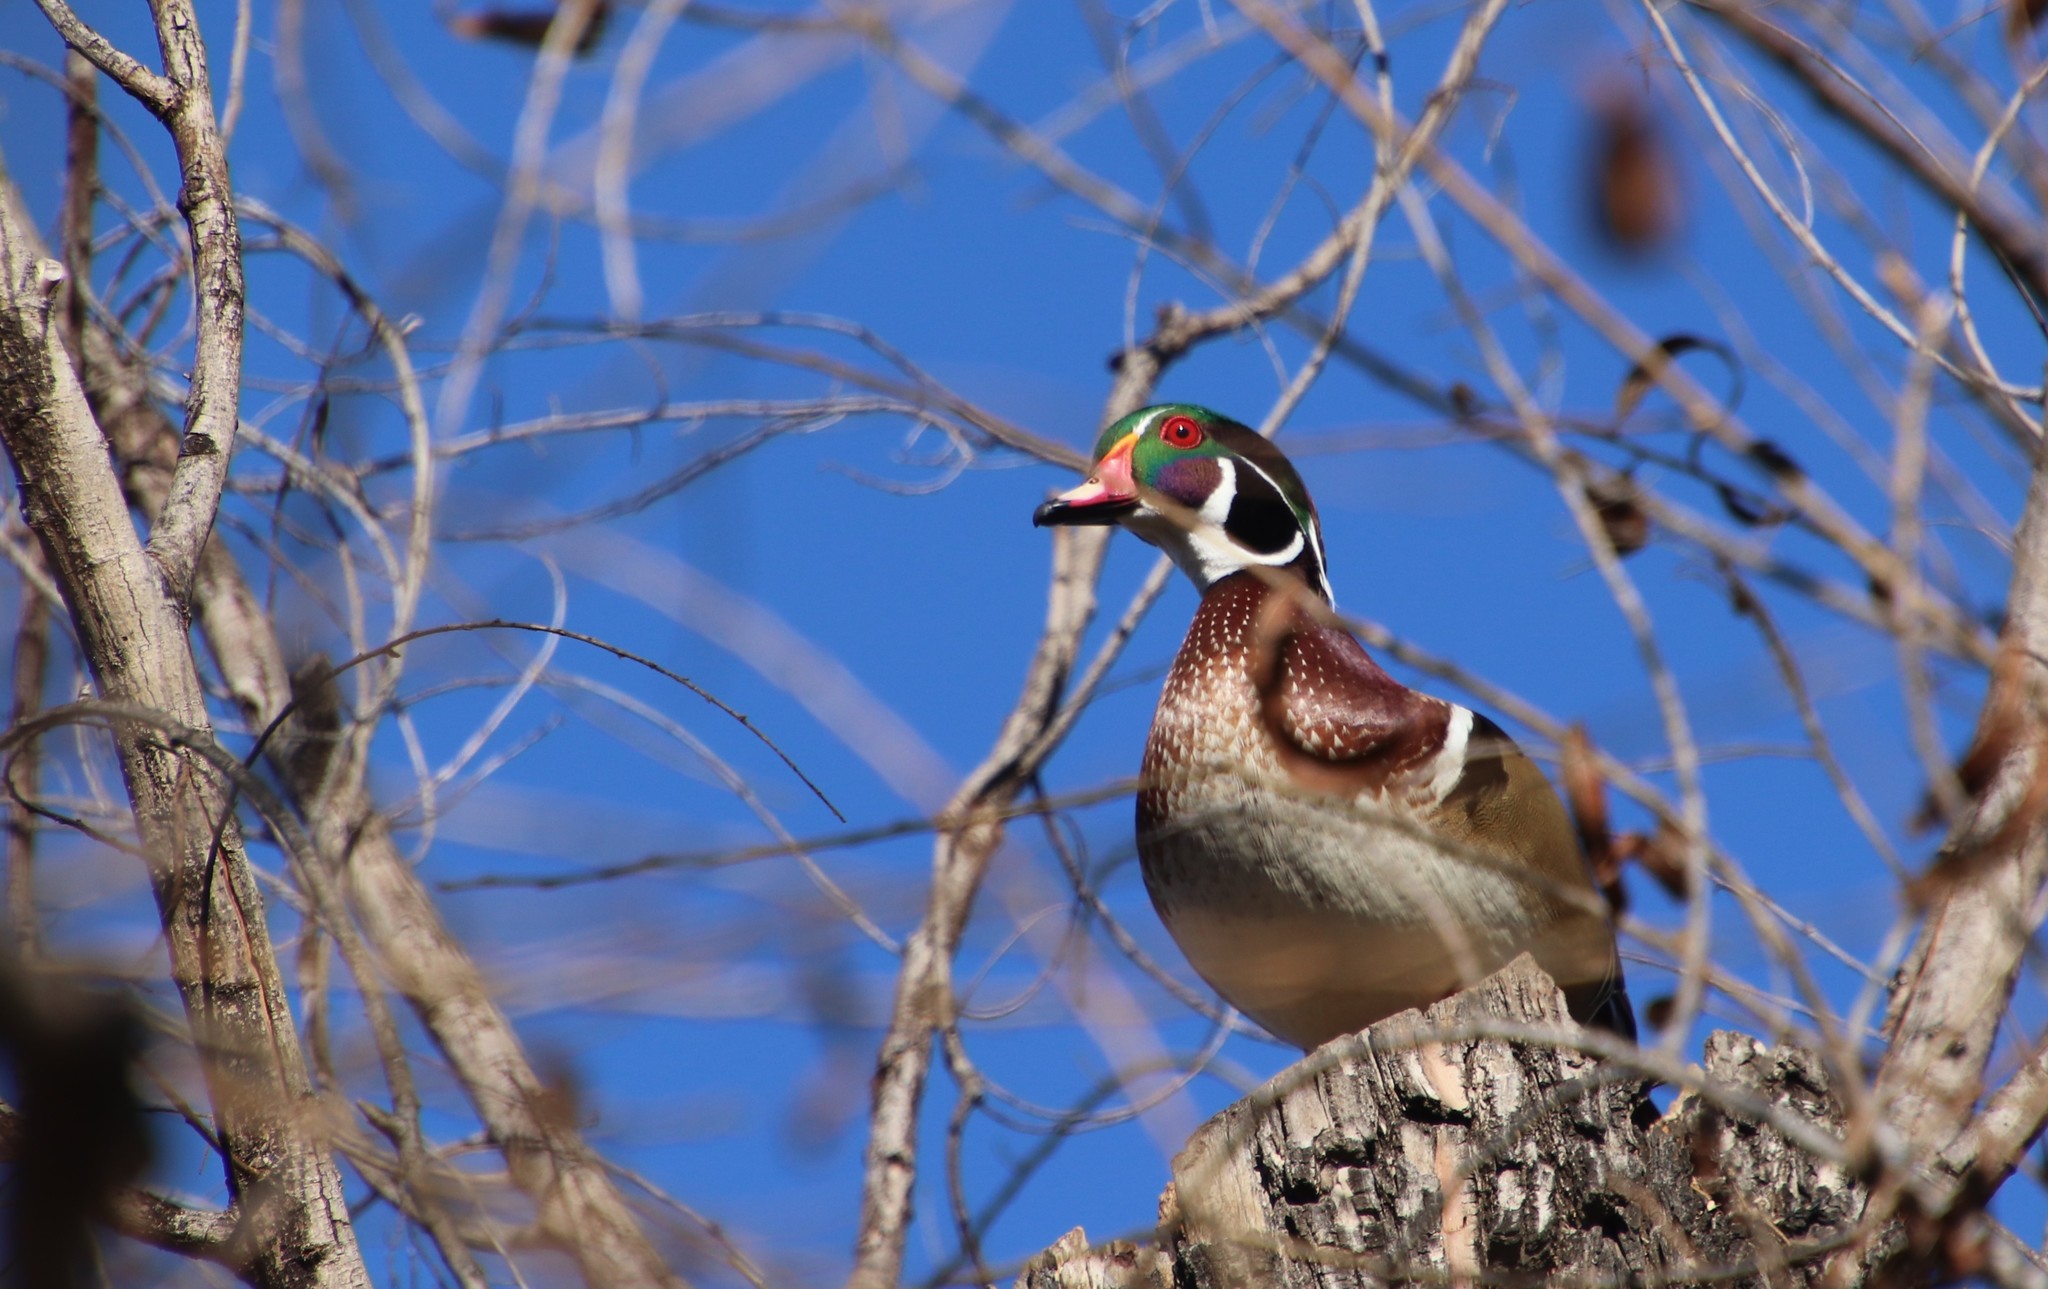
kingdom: Animalia
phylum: Chordata
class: Aves
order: Anseriformes
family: Anatidae
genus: Aix
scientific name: Aix sponsa
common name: Wood duck
